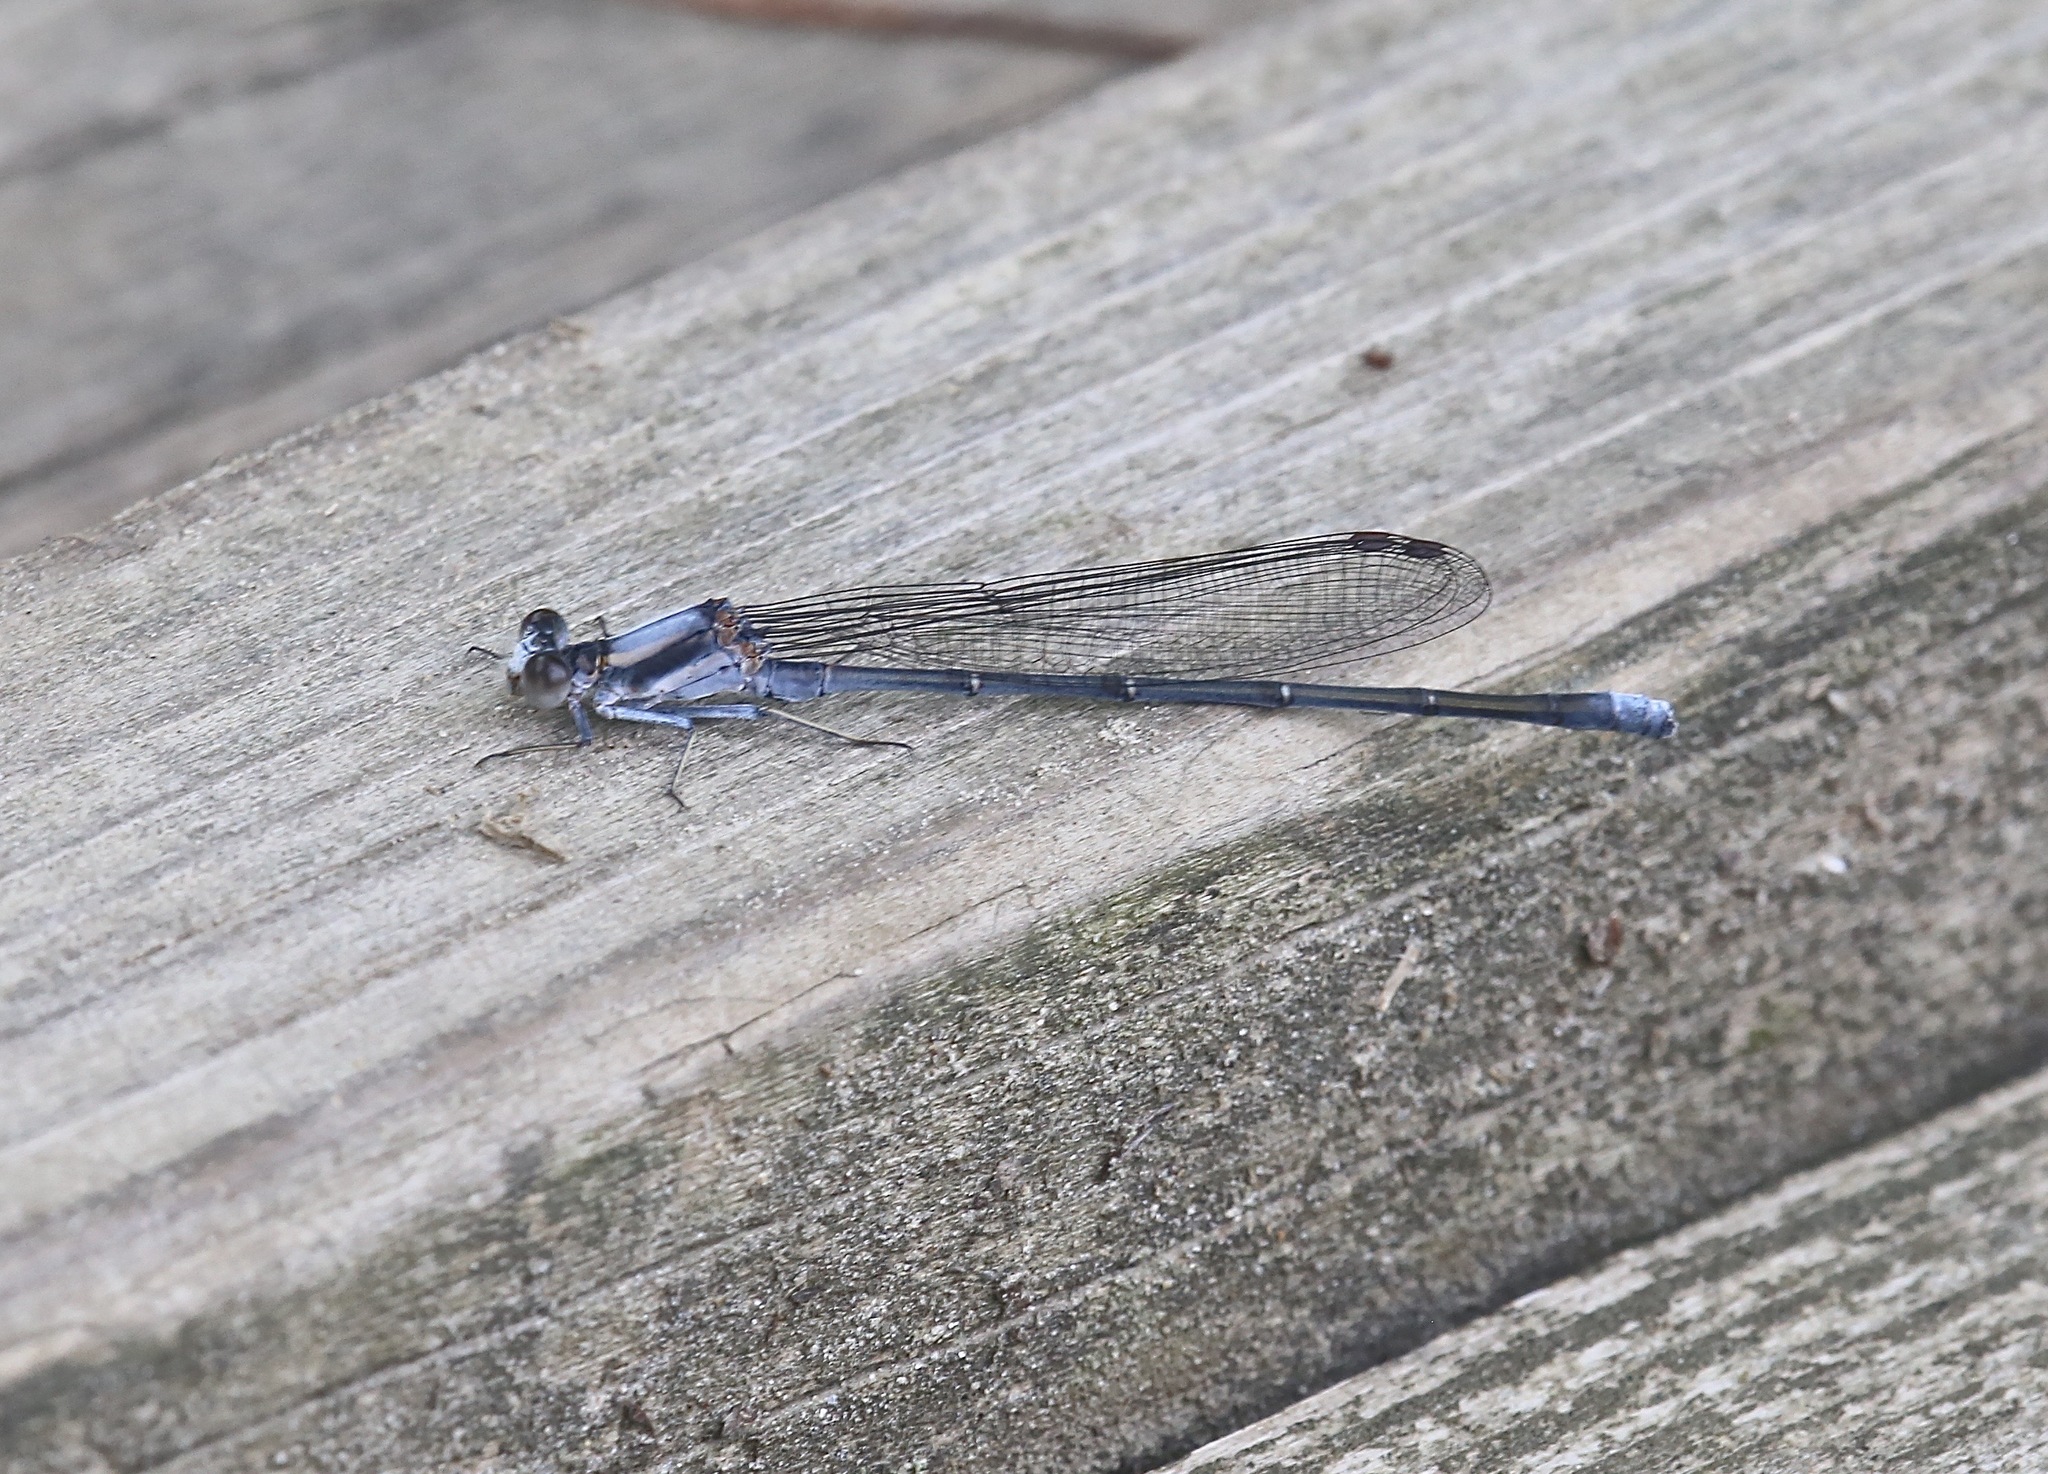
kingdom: Animalia
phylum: Arthropoda
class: Insecta
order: Odonata
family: Coenagrionidae
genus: Argia
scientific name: Argia moesta
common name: Powdered dancer
